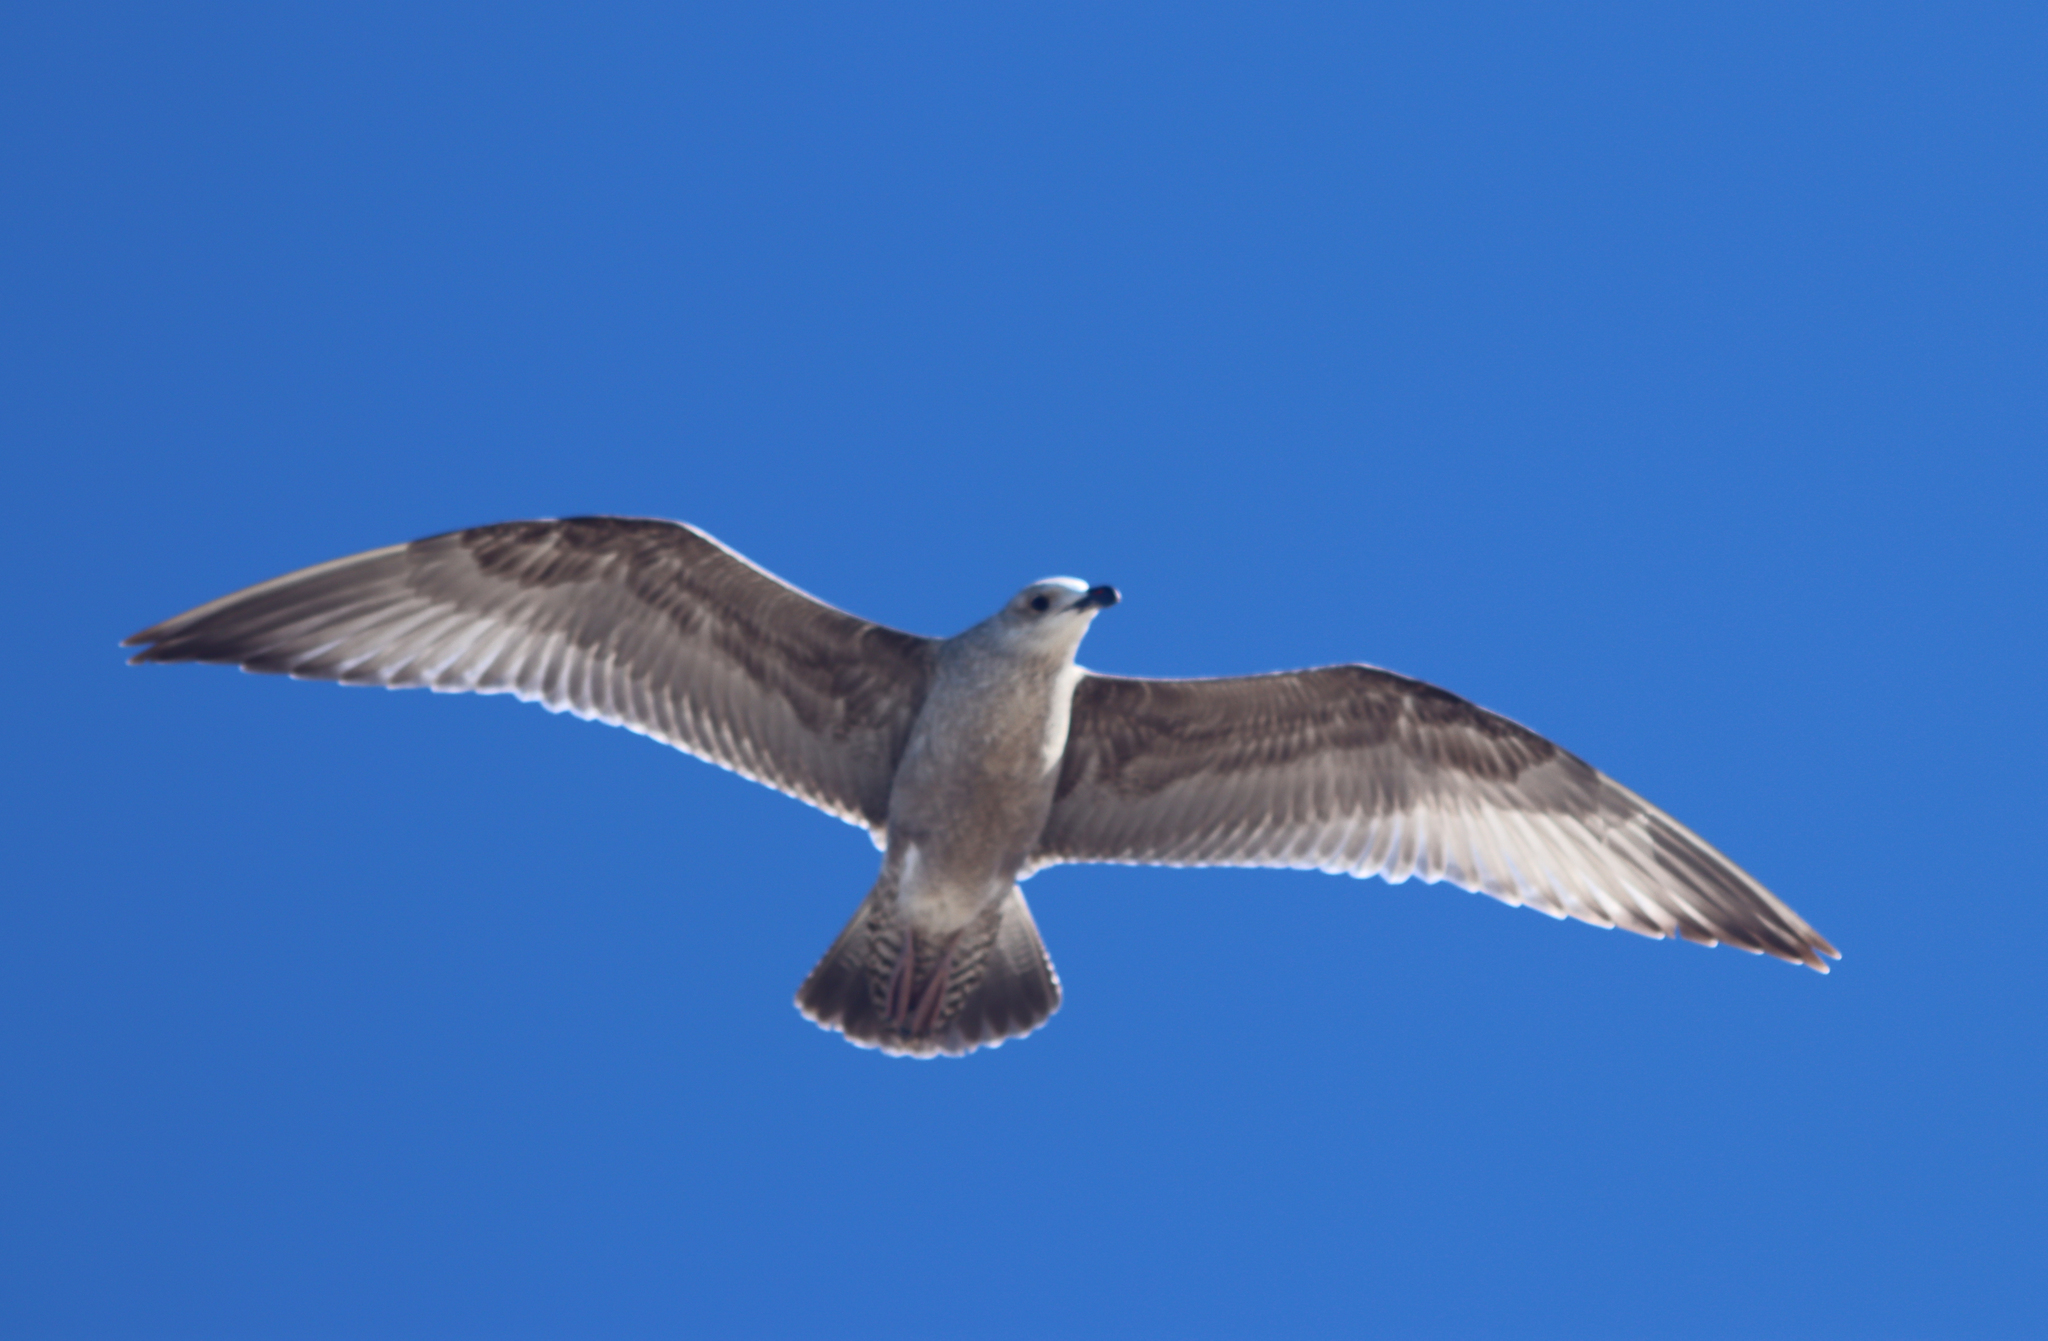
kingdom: Animalia
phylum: Chordata
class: Aves
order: Charadriiformes
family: Laridae
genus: Larus
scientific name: Larus argentatus
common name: Herring gull
